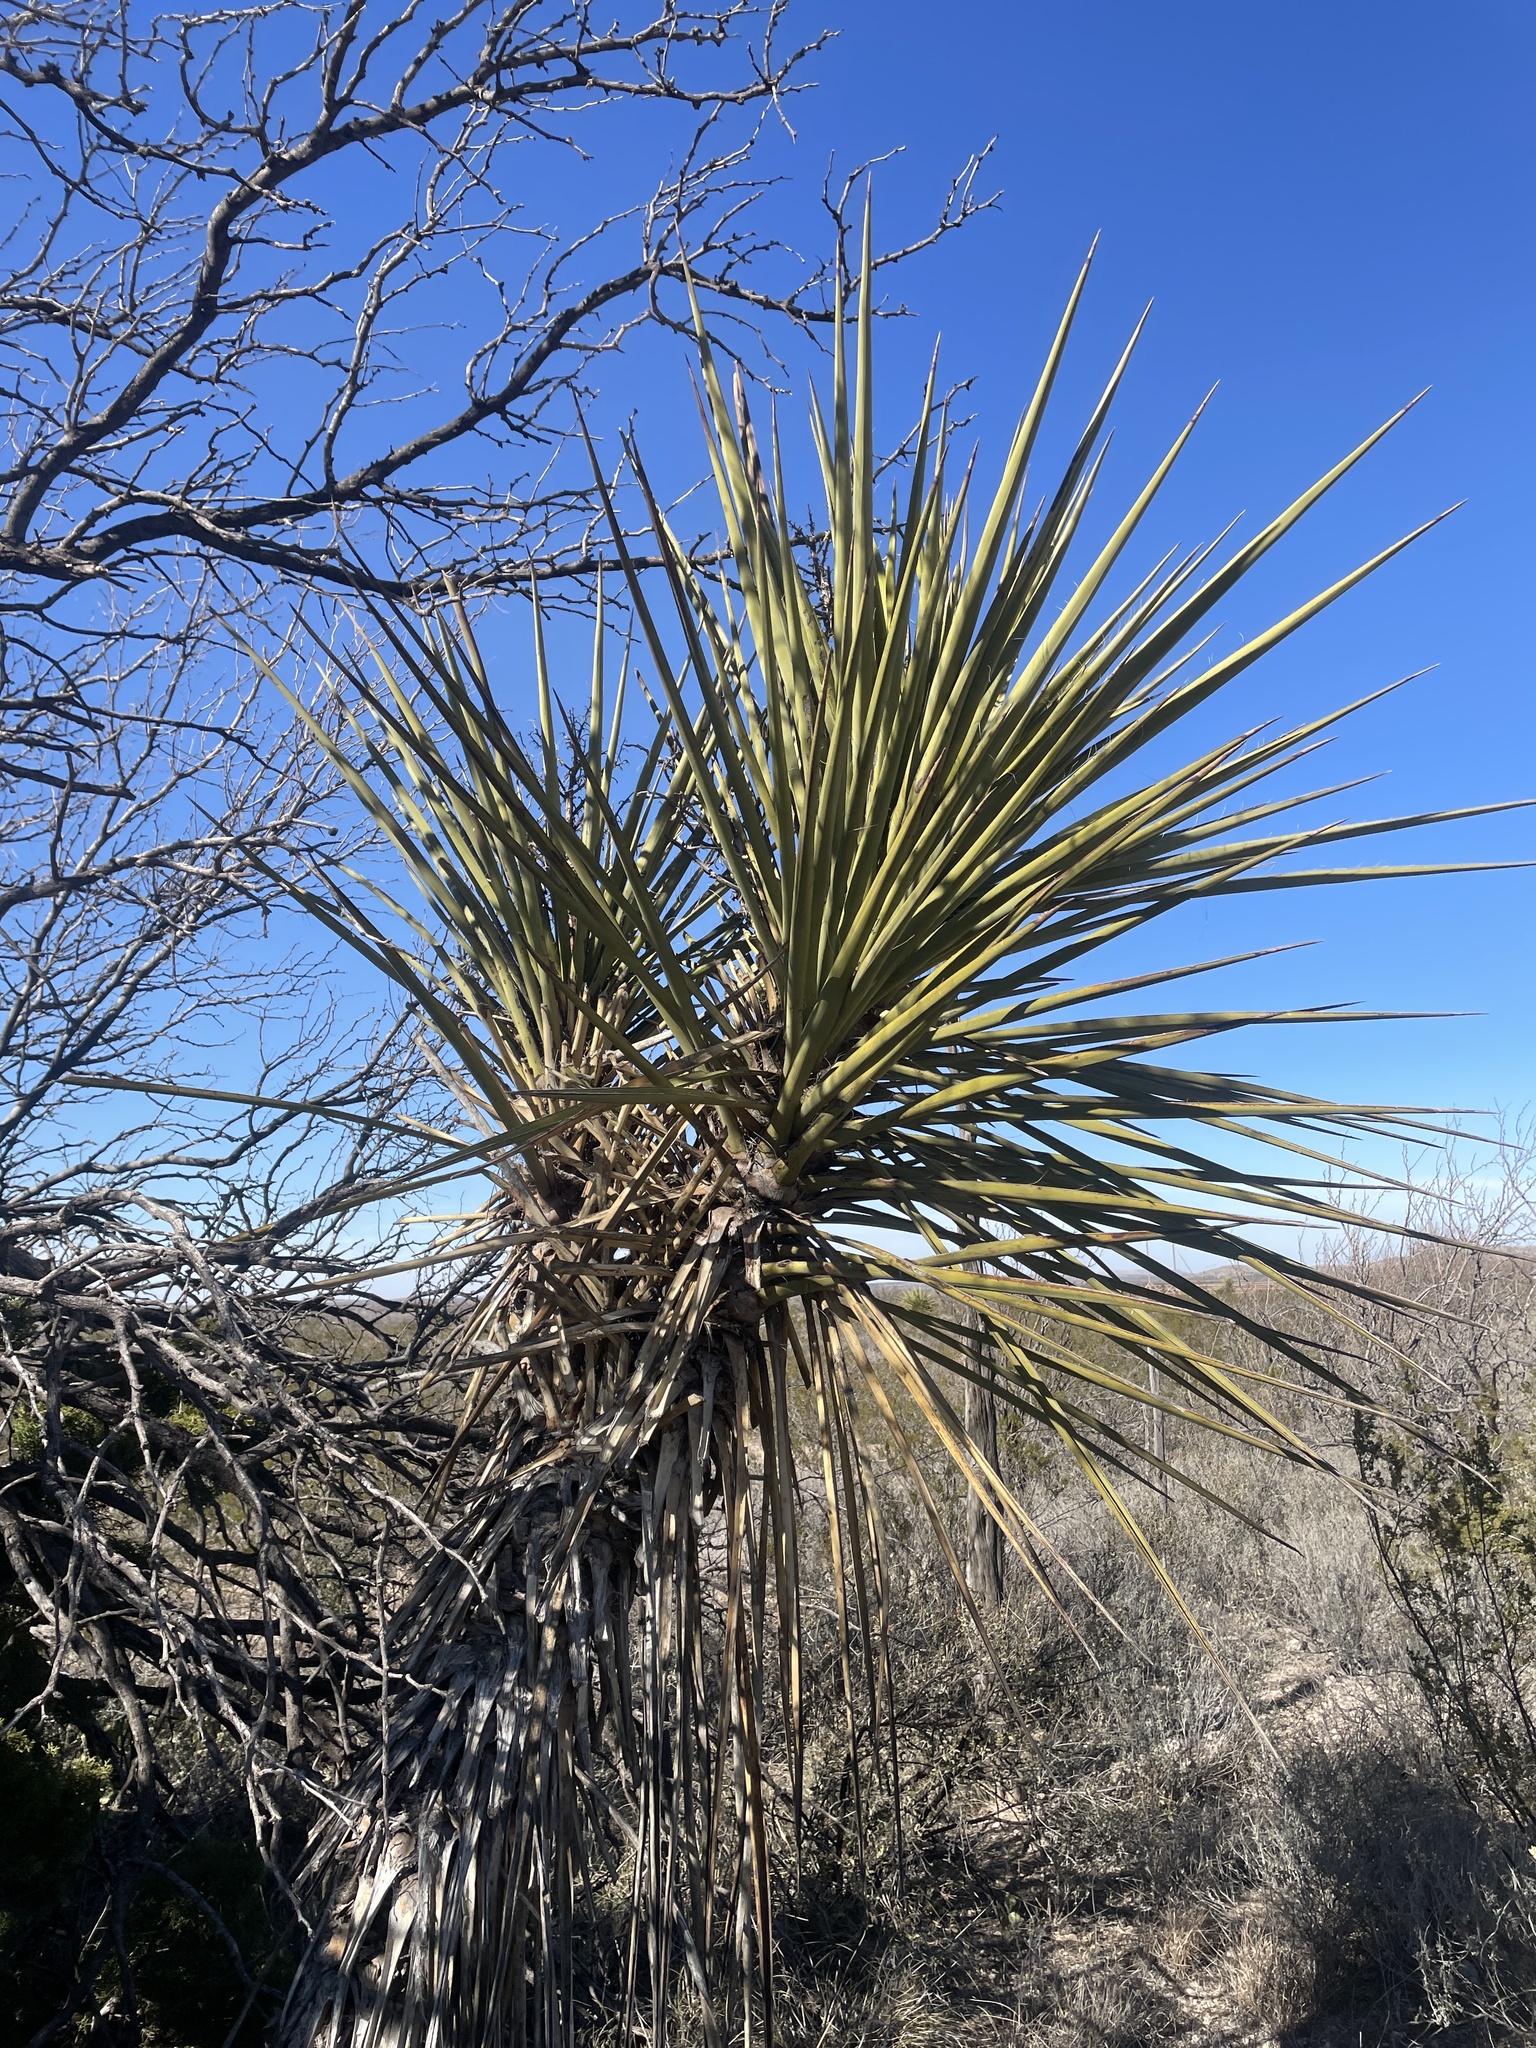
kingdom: Plantae
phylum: Tracheophyta
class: Liliopsida
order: Asparagales
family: Asparagaceae
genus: Yucca
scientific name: Yucca treculiana
